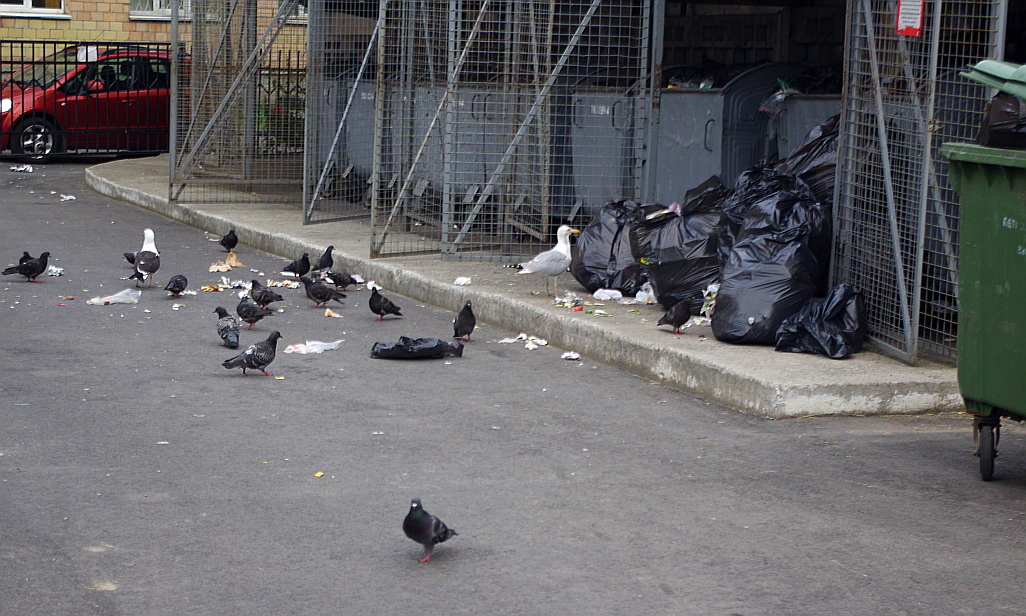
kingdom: Animalia
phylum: Chordata
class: Aves
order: Charadriiformes
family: Laridae
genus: Larus
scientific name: Larus fuscus
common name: Lesser black-backed gull
